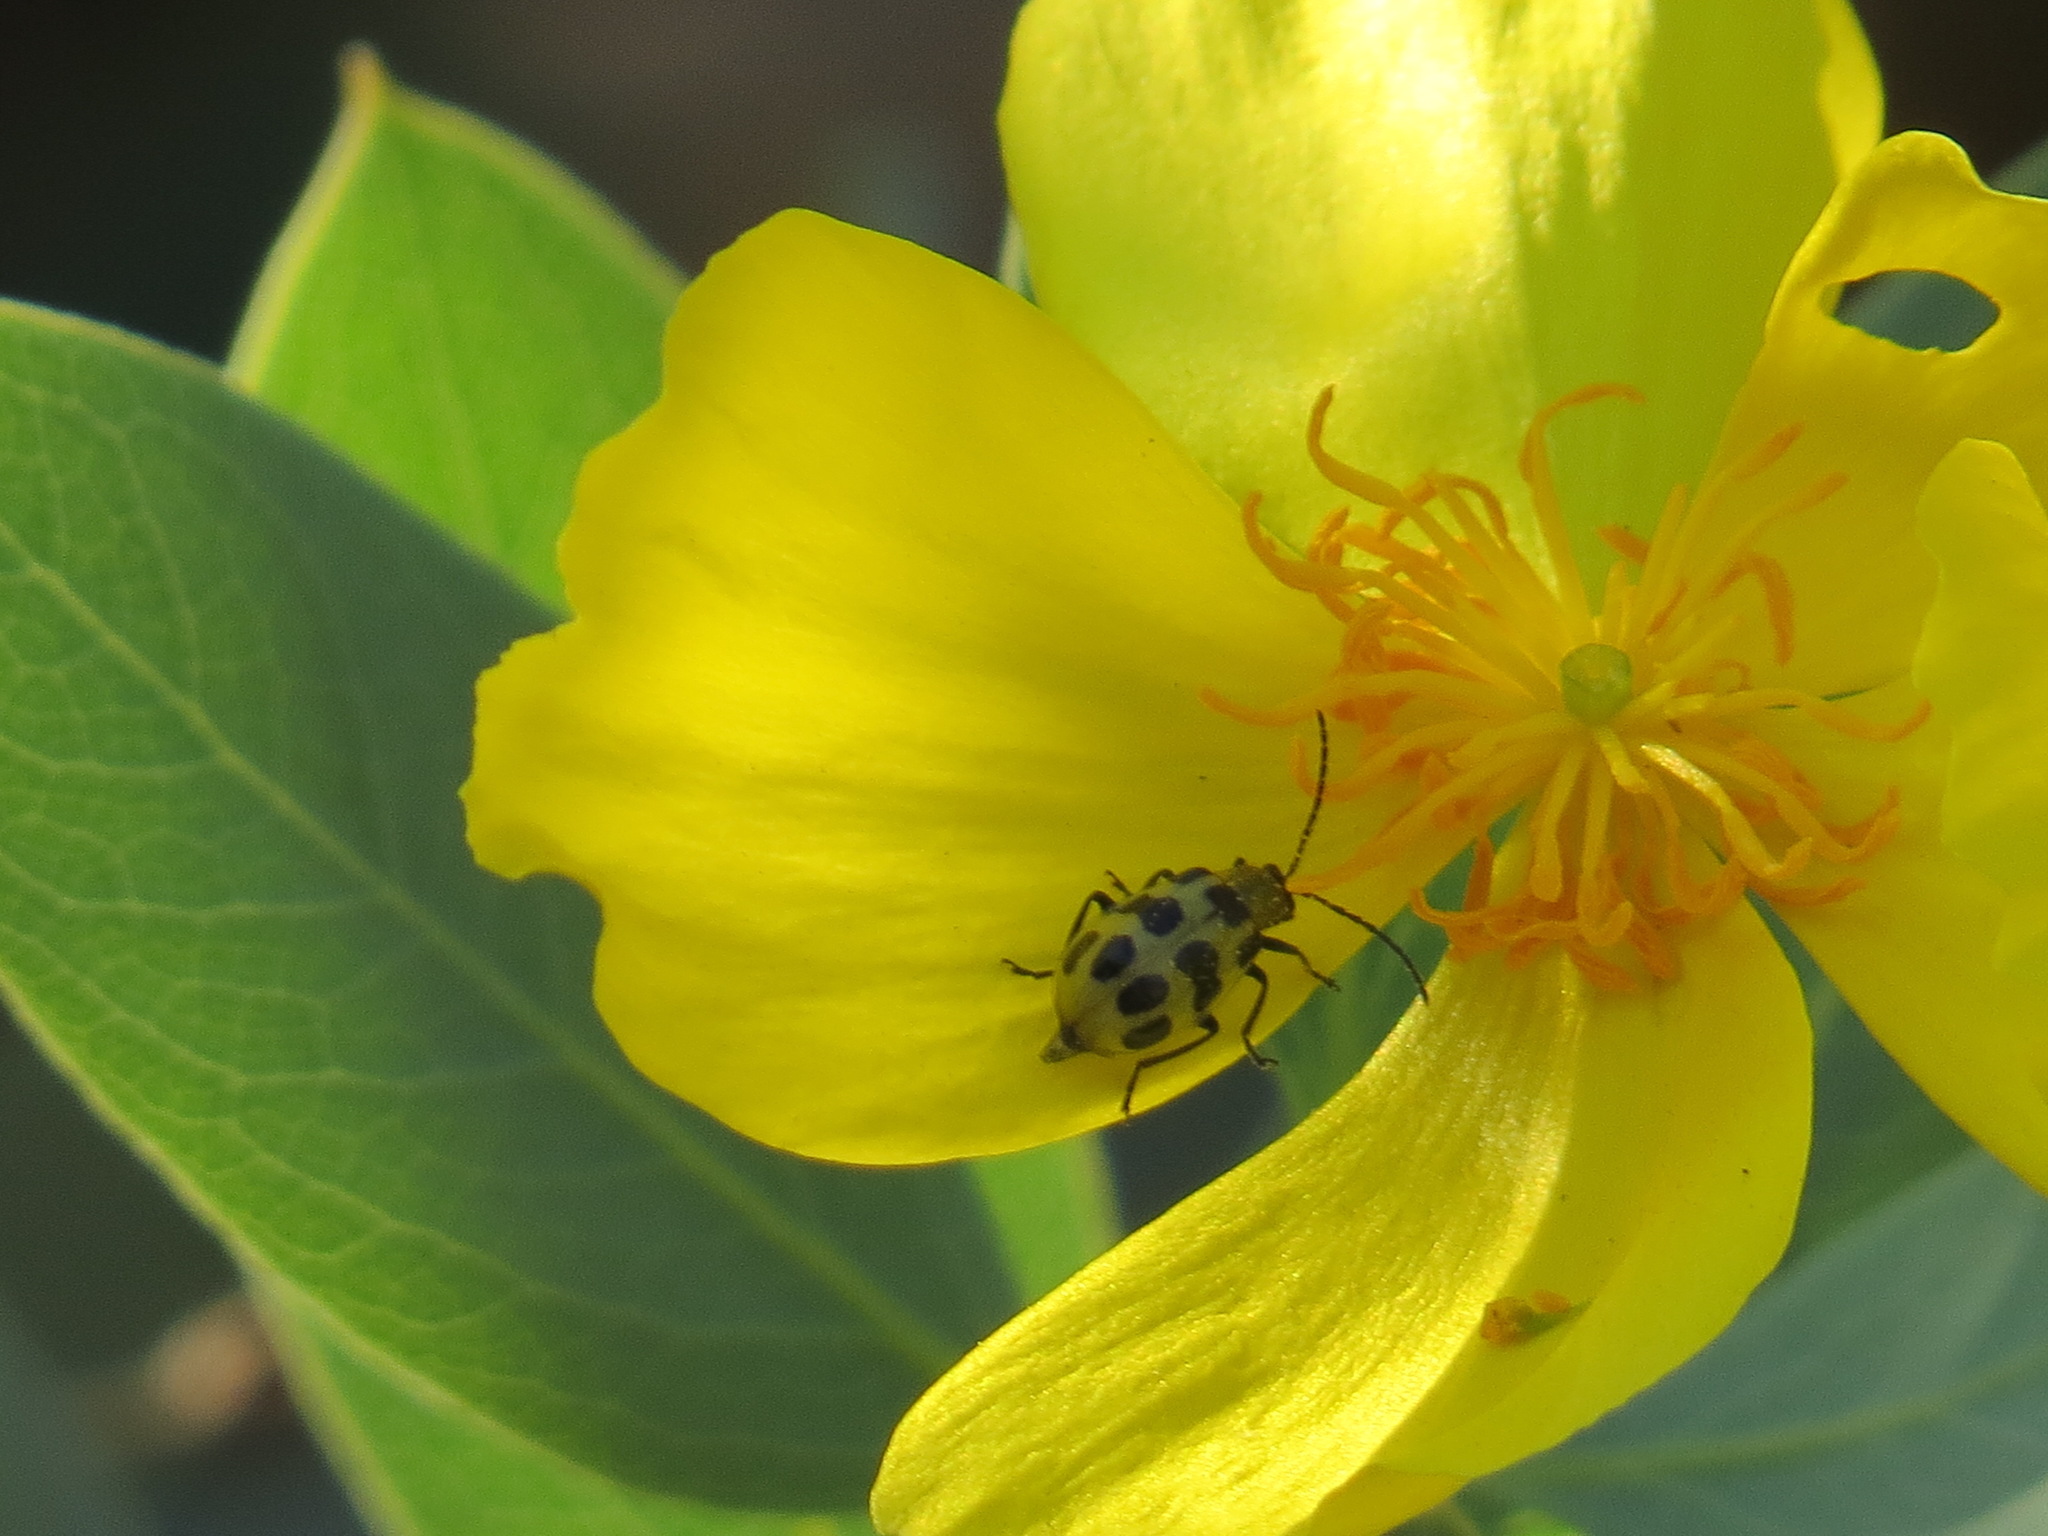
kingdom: Animalia
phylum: Arthropoda
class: Insecta
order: Coleoptera
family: Chrysomelidae
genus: Diabrotica
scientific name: Diabrotica undecimpunctata
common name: Spotted cucumber beetle
